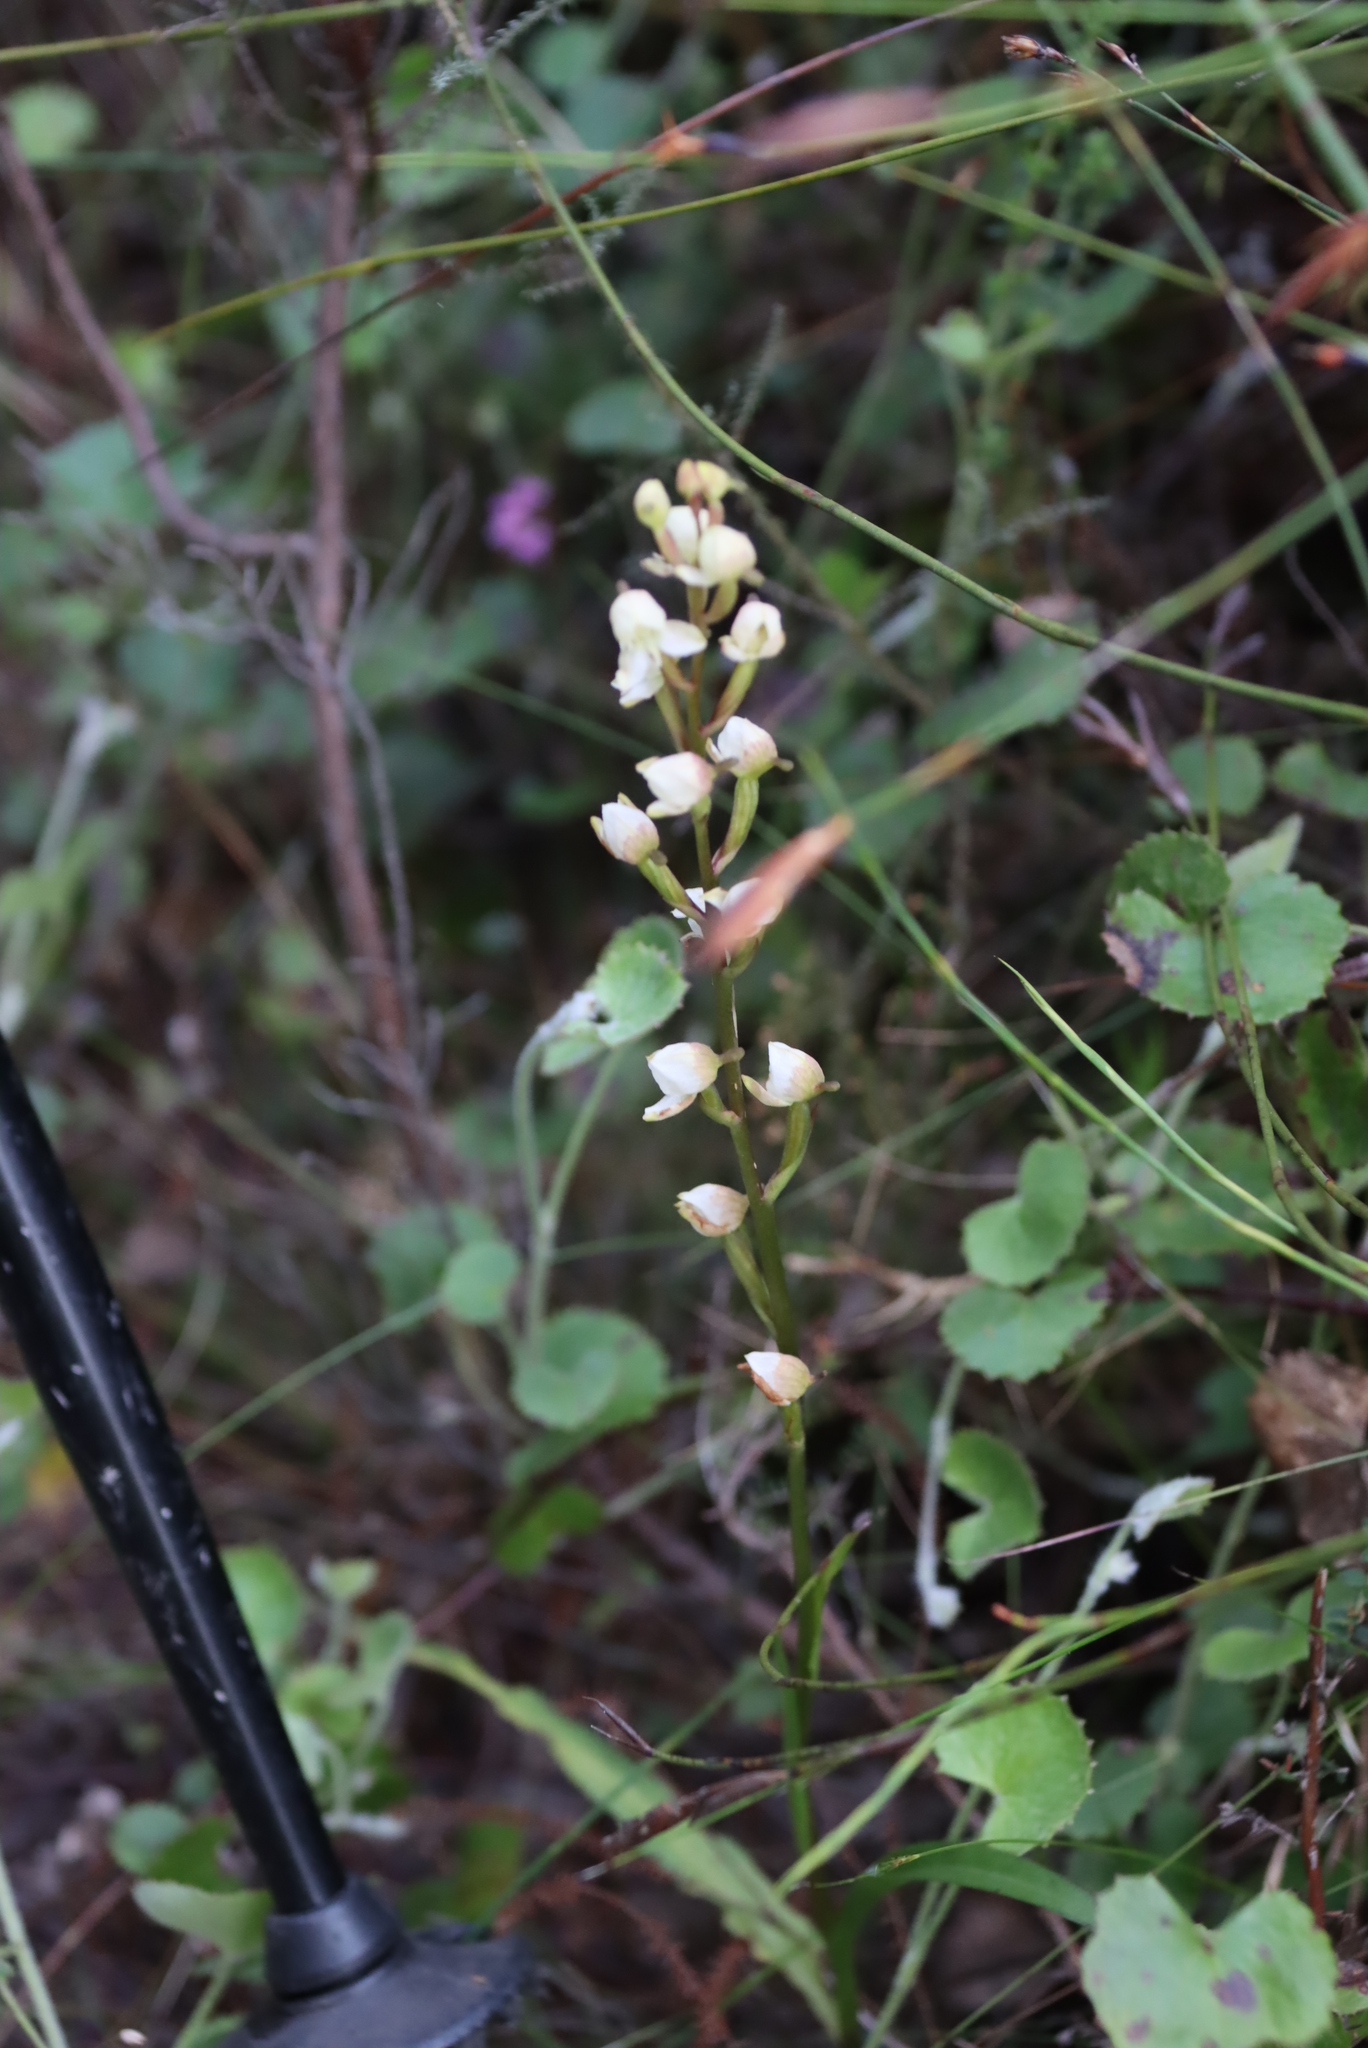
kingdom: Plantae
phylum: Tracheophyta
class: Liliopsida
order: Asparagales
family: Orchidaceae
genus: Disa
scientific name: Disa uncinata
